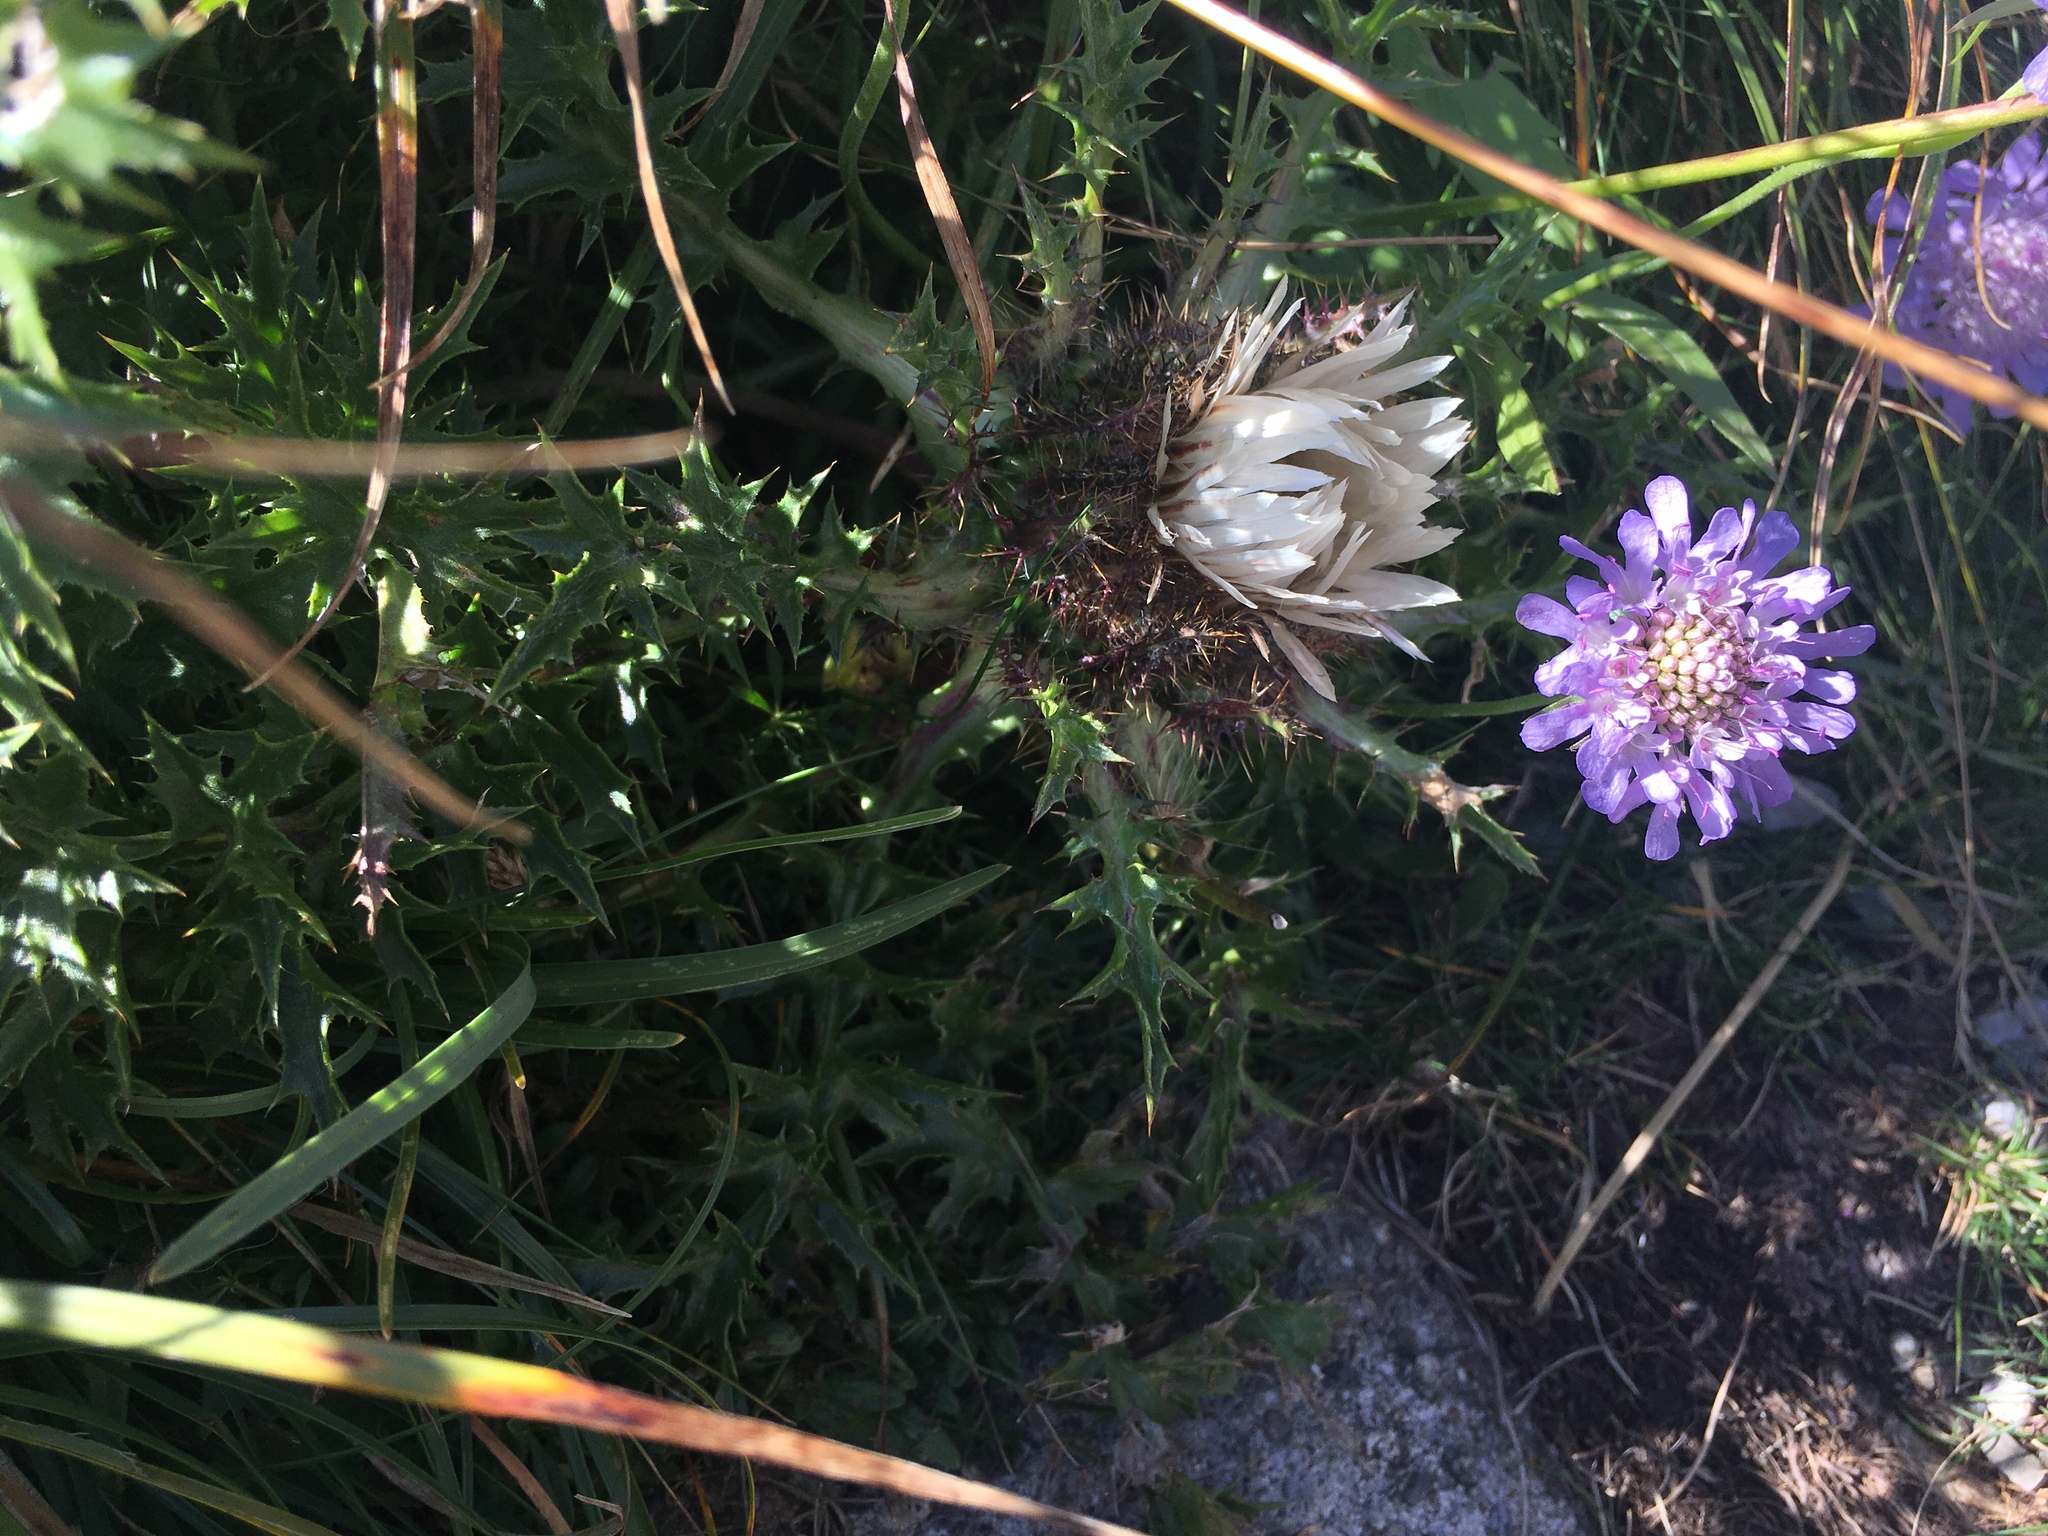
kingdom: Plantae
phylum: Tracheophyta
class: Magnoliopsida
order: Asterales
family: Asteraceae
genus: Carlina
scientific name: Carlina acaulis
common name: Stemless carline thistle
